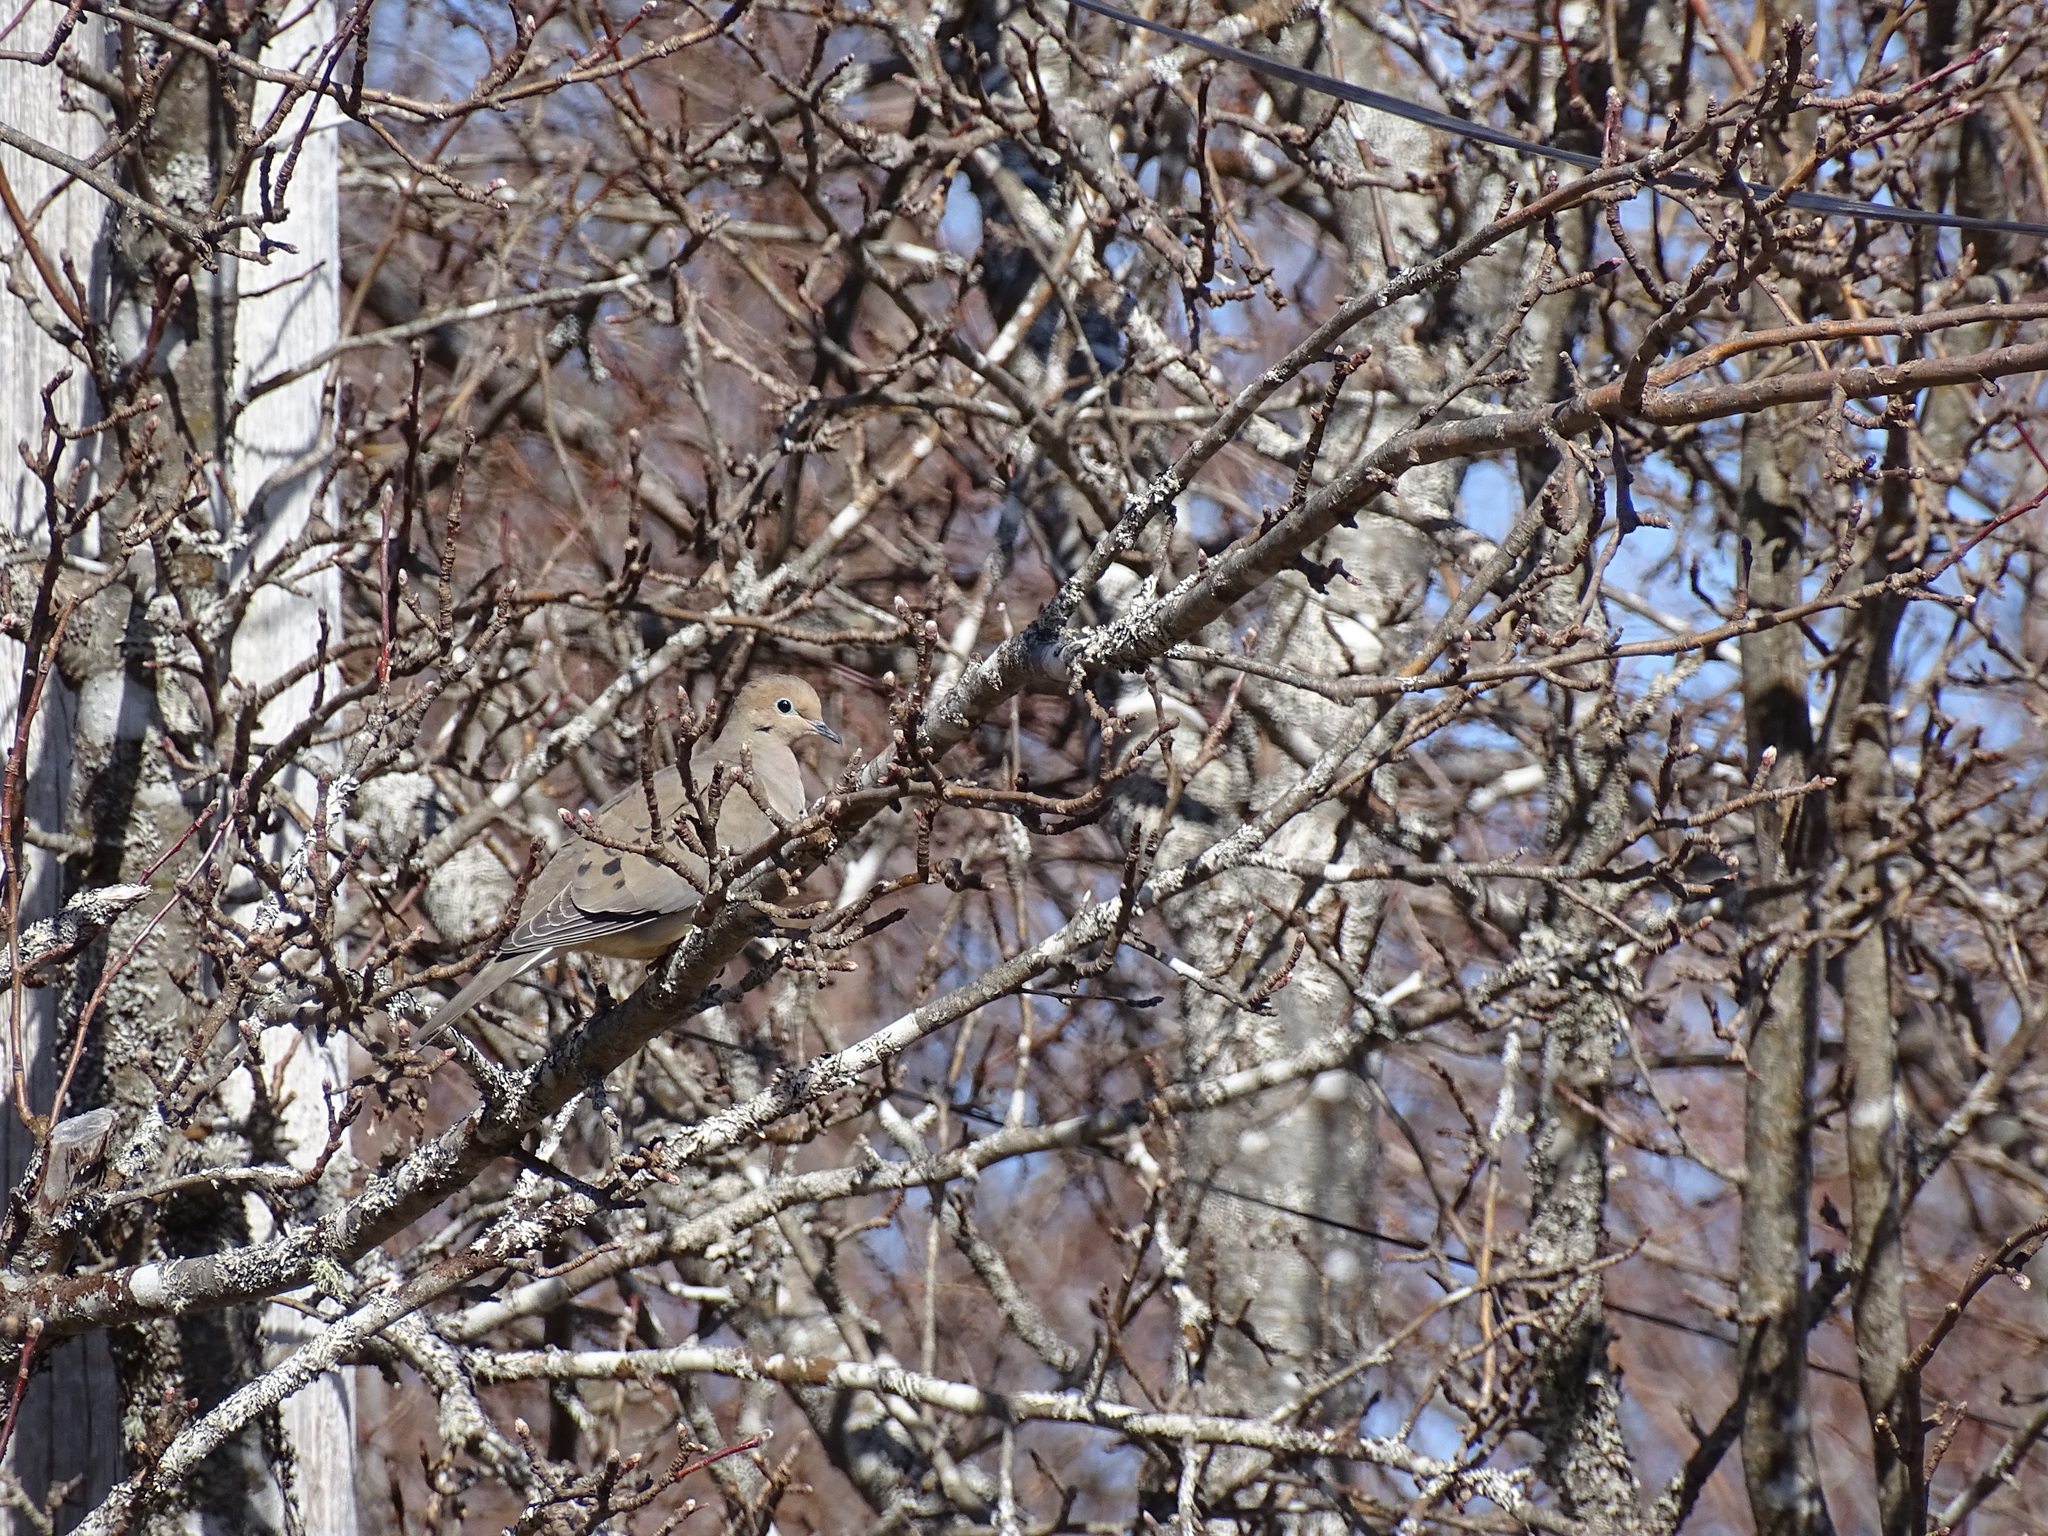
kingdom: Animalia
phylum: Chordata
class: Aves
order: Columbiformes
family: Columbidae
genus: Zenaida
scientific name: Zenaida macroura
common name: Mourning dove
